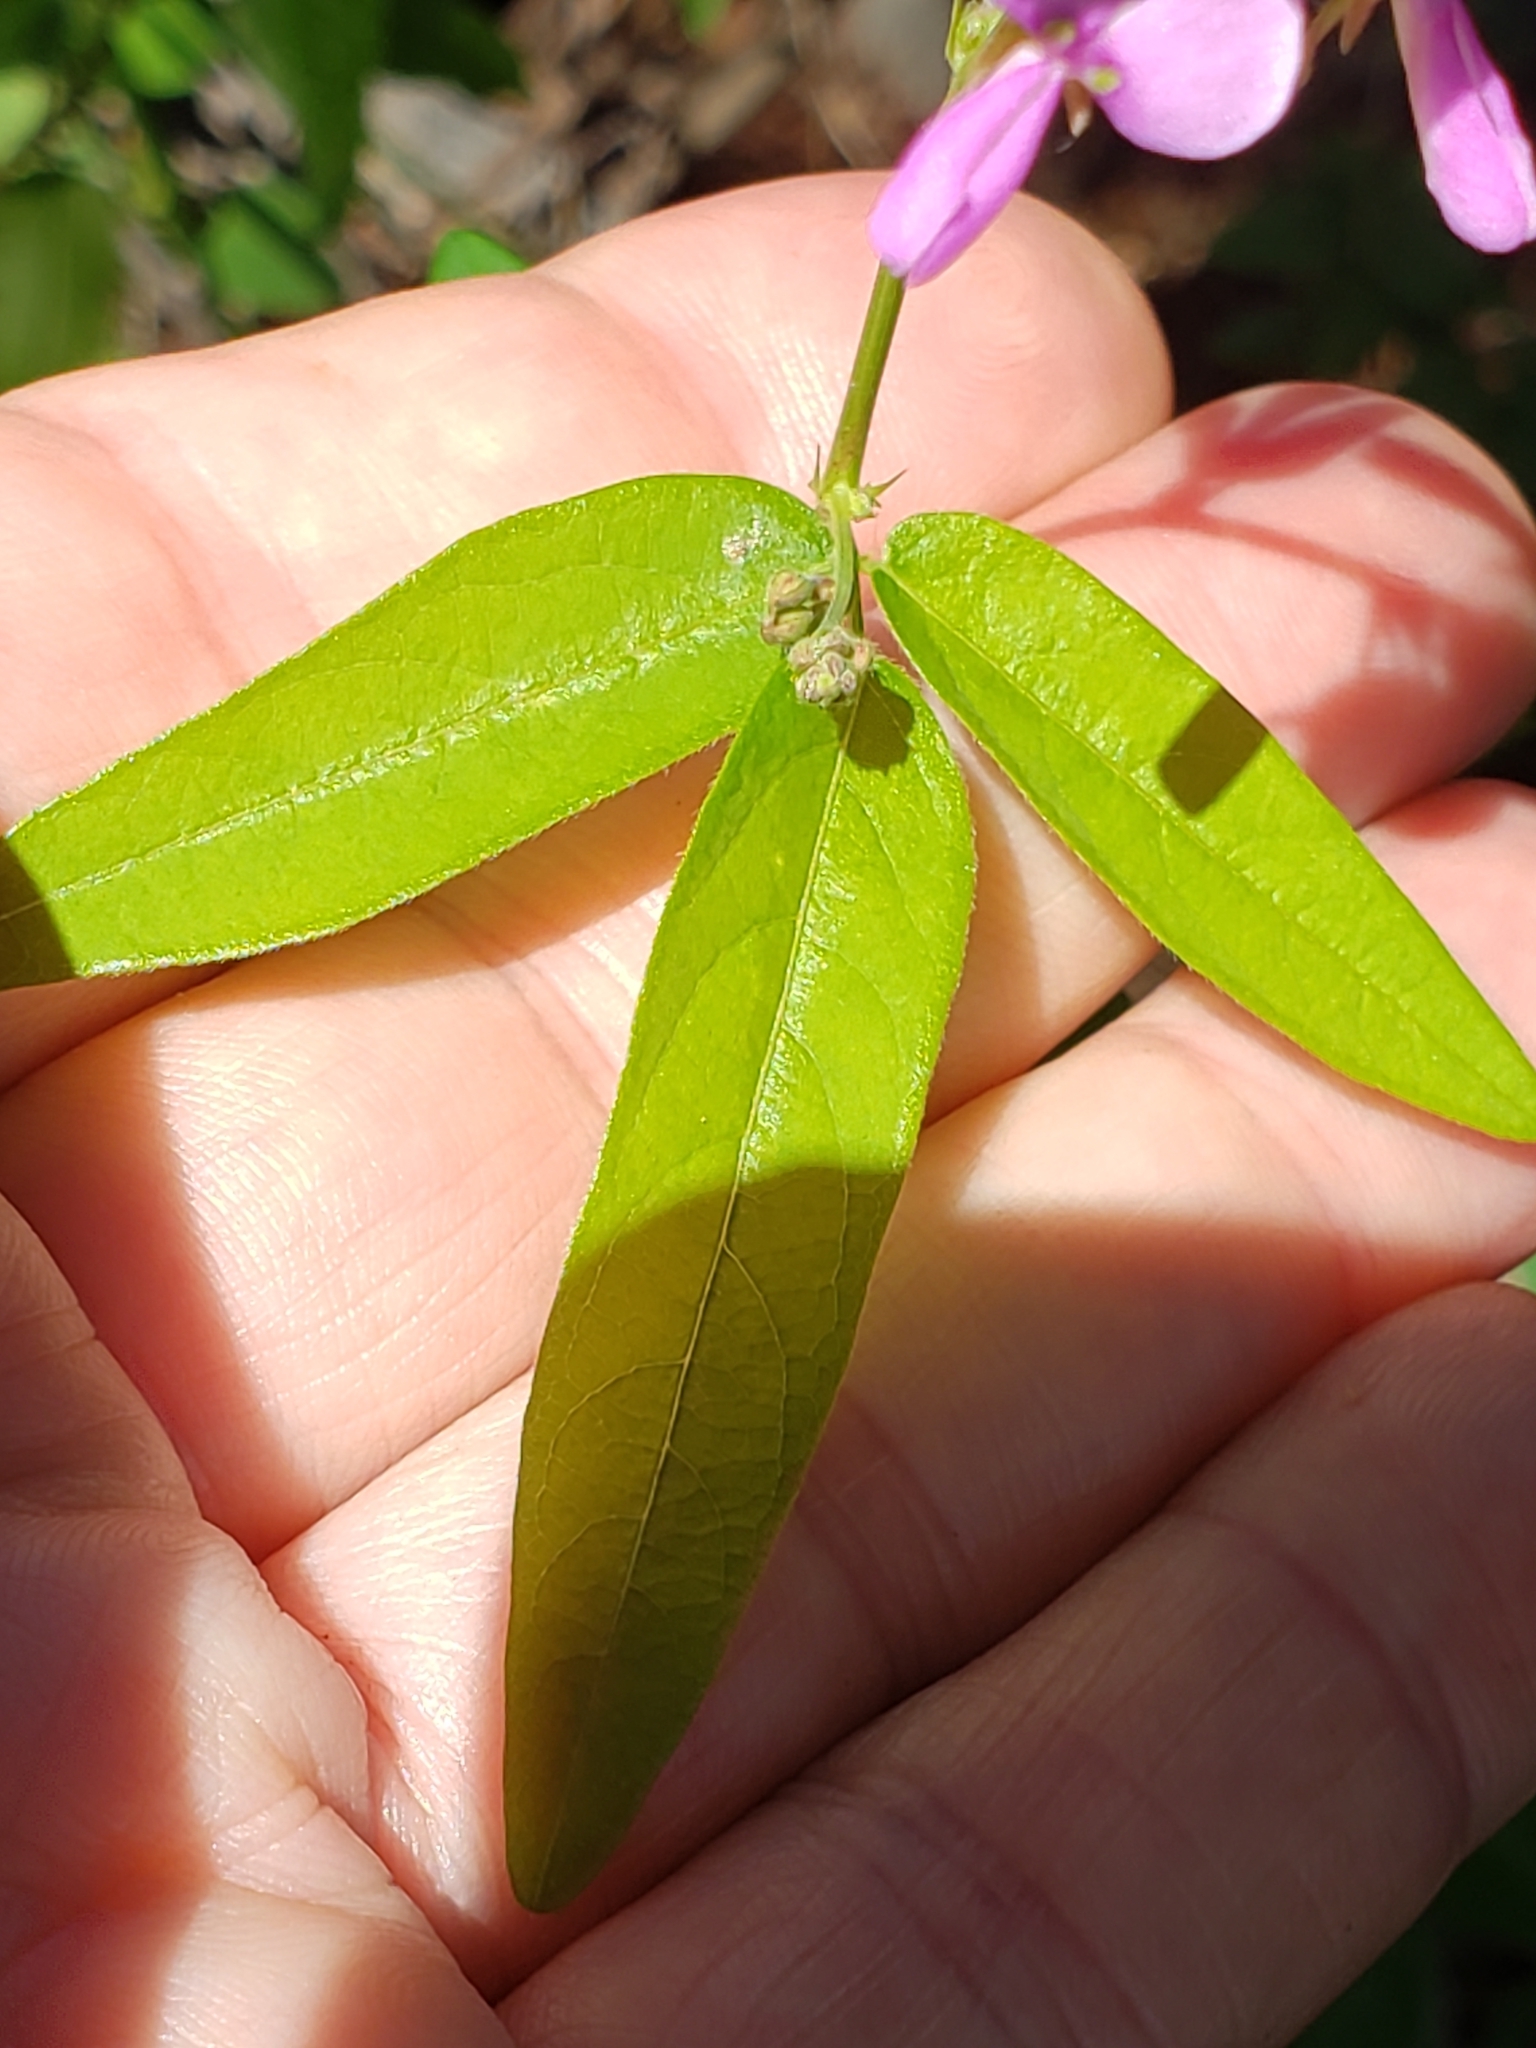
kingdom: Plantae
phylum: Tracheophyta
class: Magnoliopsida
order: Fabales
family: Fabaceae
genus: Desmodium
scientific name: Desmodium paniculatum
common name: Panicled tick-clover
